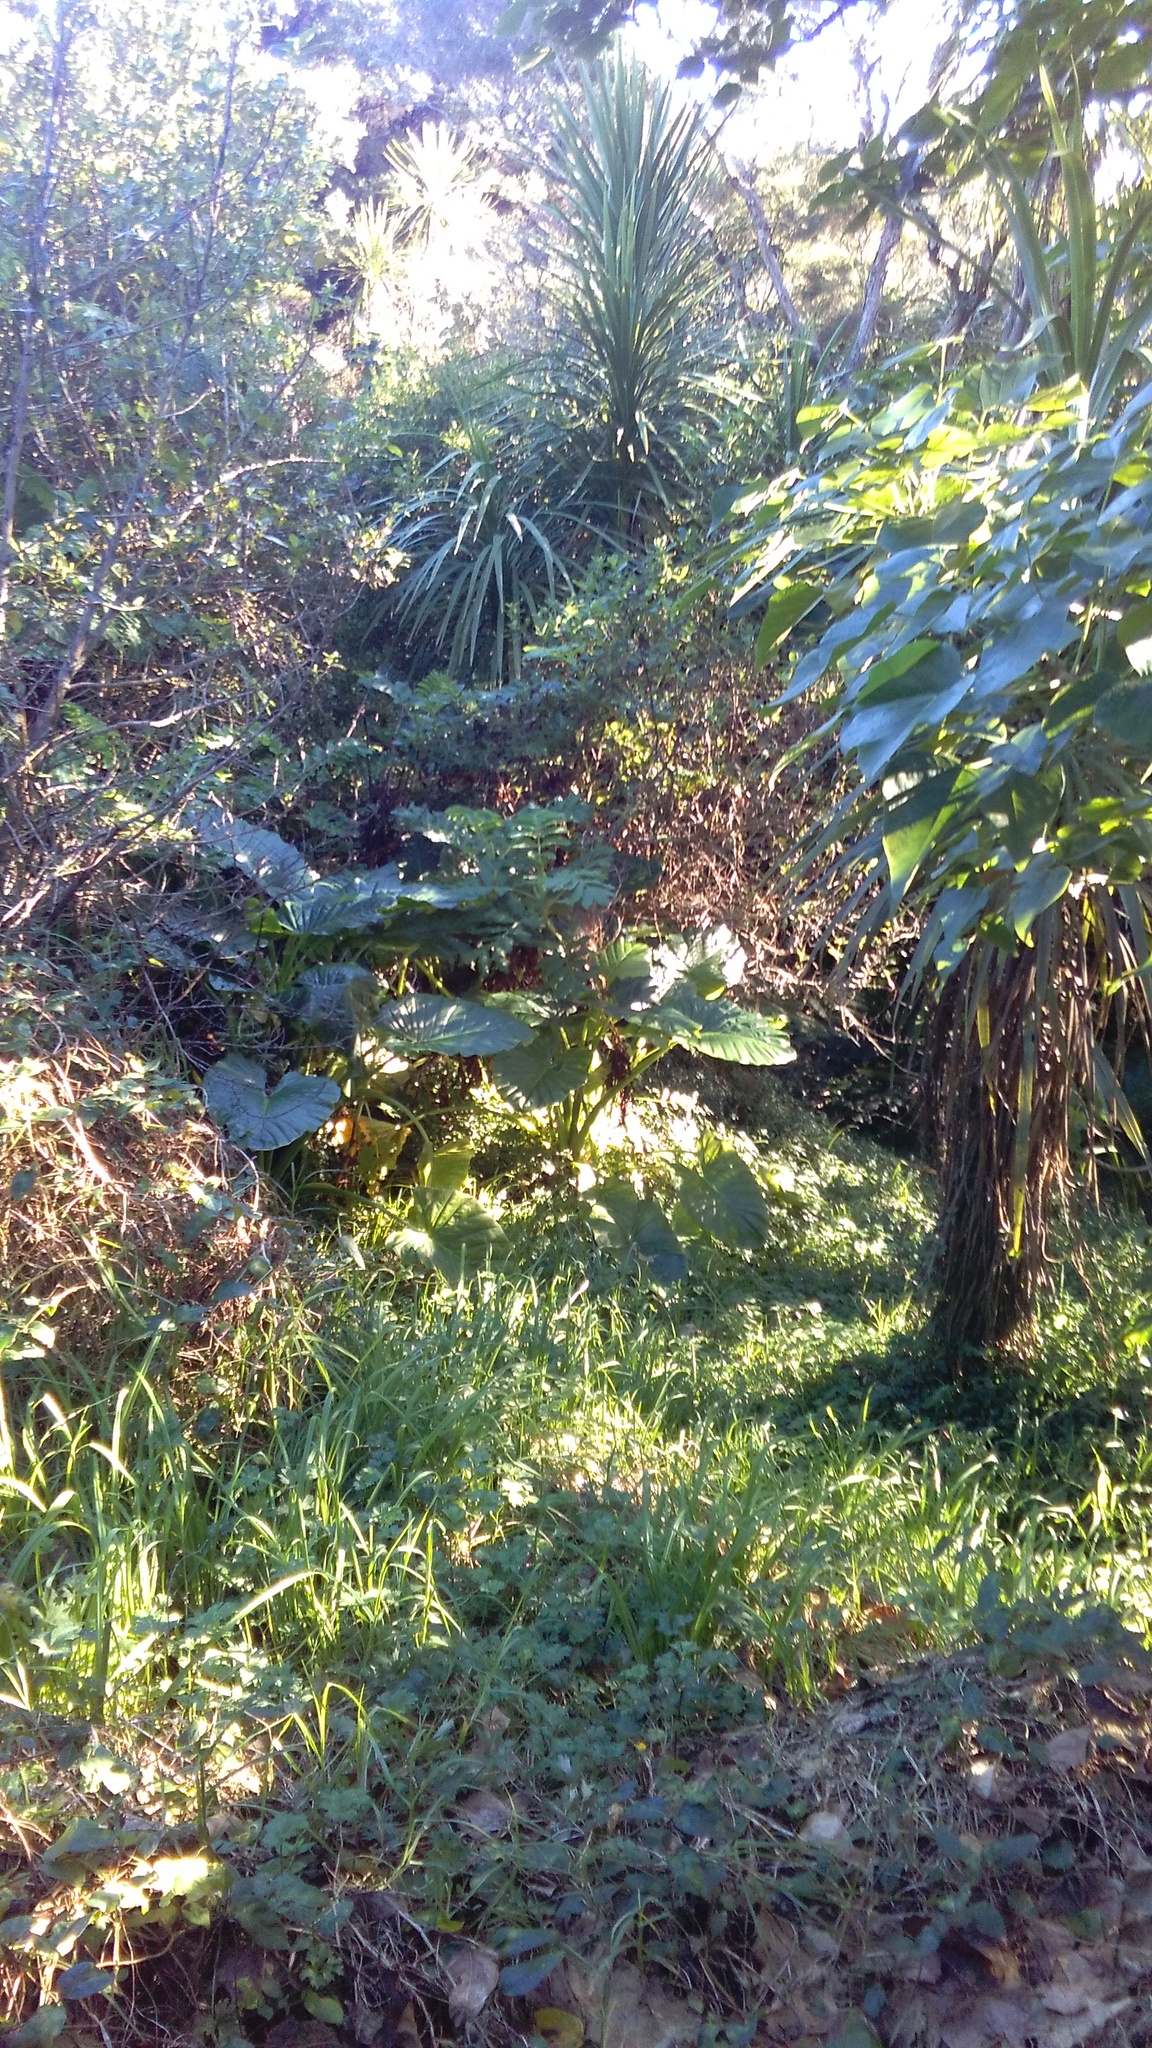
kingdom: Plantae
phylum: Tracheophyta
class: Liliopsida
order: Poales
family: Poaceae
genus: Cenchrus
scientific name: Cenchrus clandestinus
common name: Kikuyugrass
